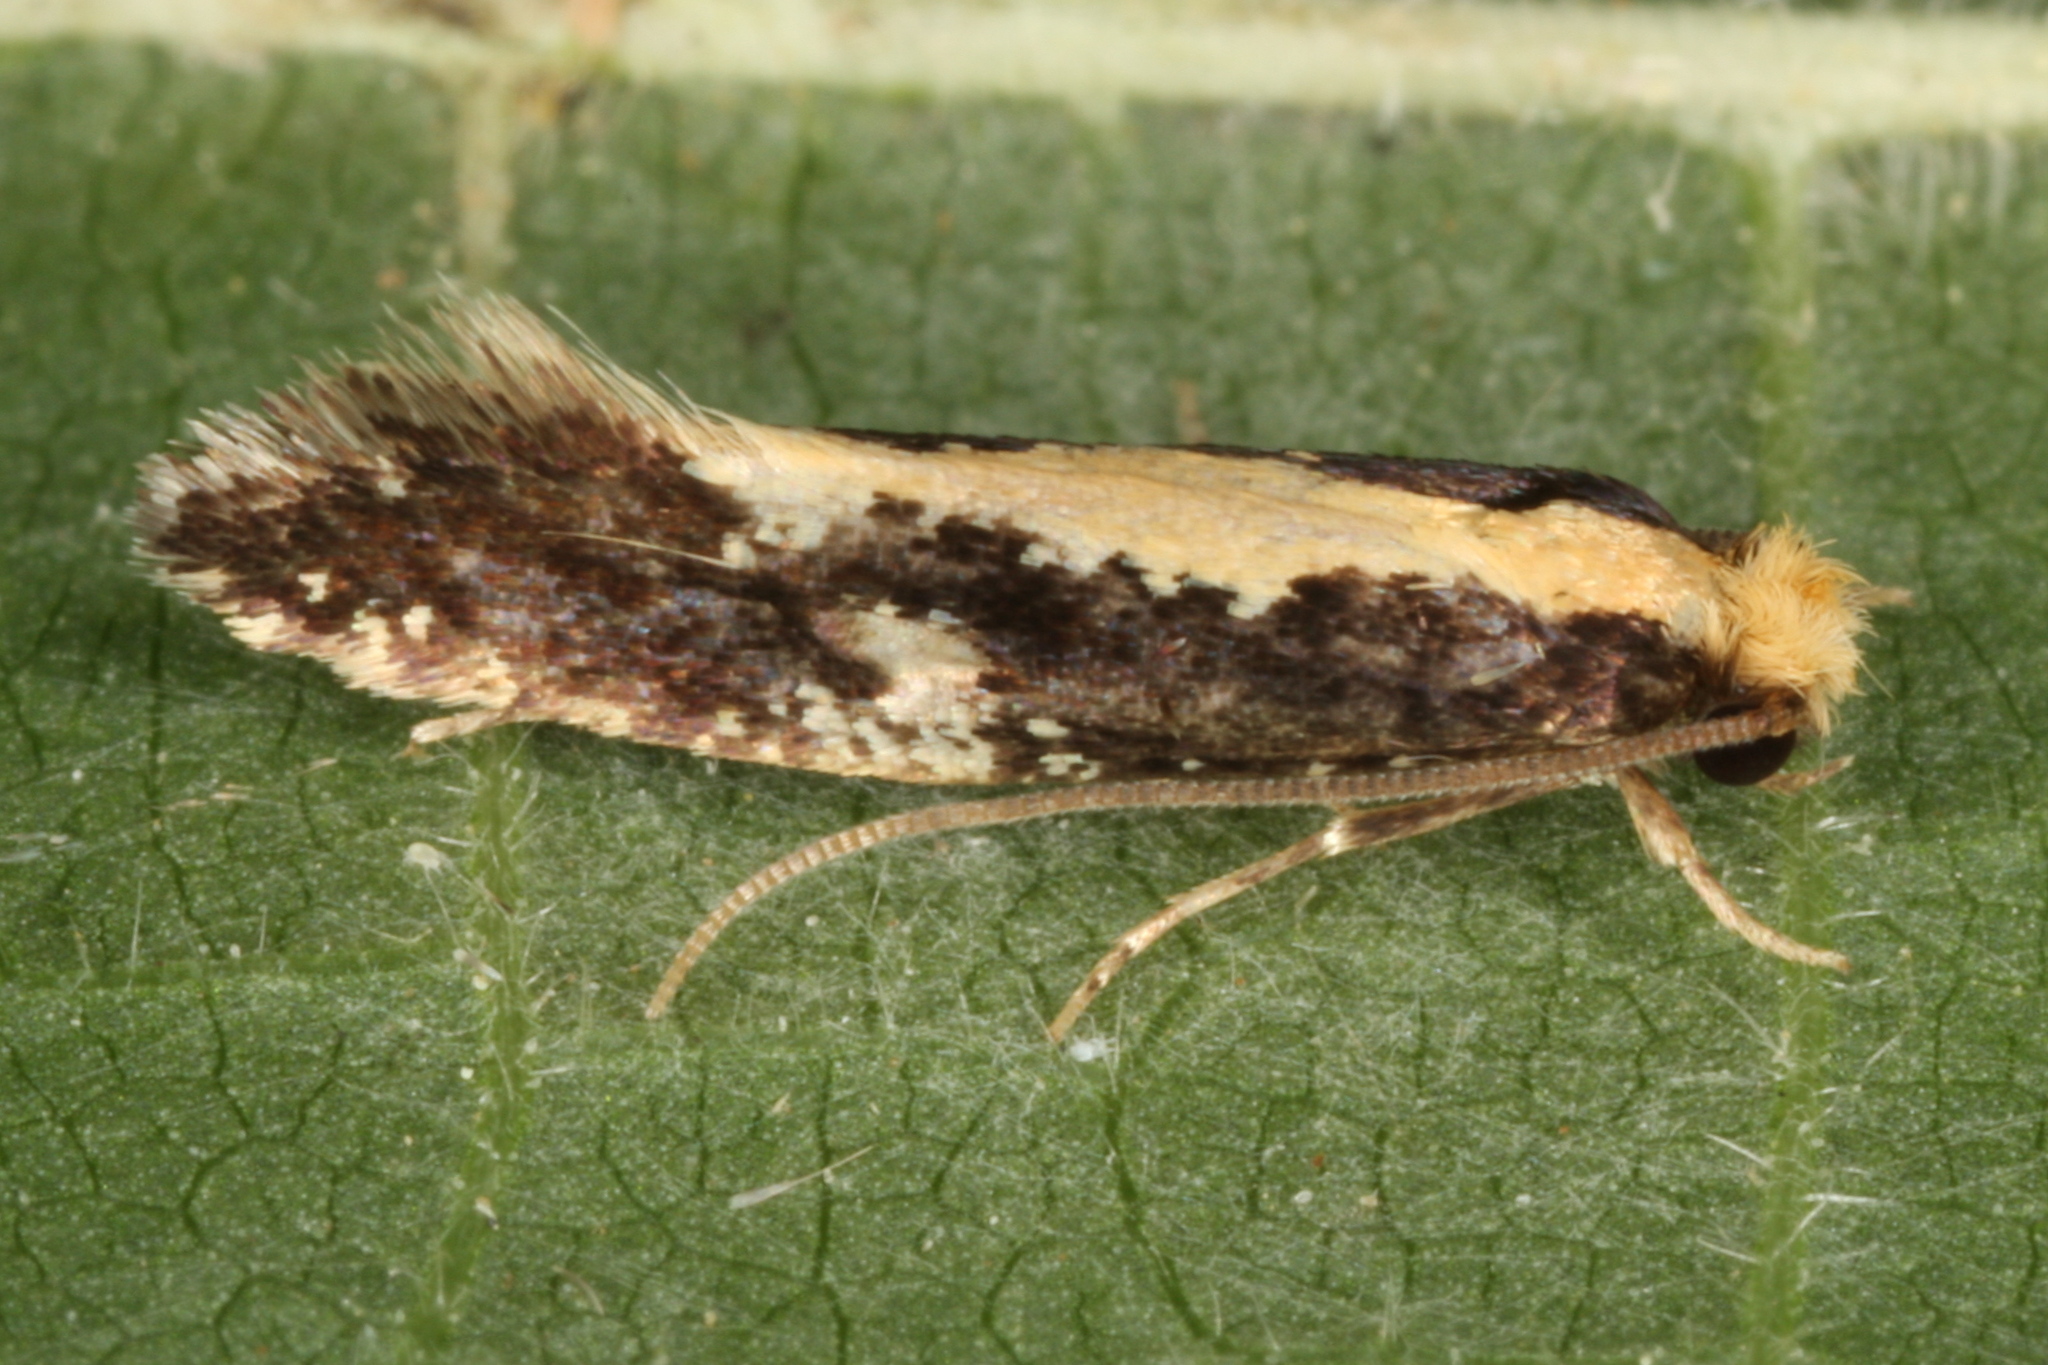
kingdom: Animalia
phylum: Arthropoda
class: Insecta
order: Lepidoptera
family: Tineidae
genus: Monopis
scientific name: Monopis obviella
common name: Tineid moth
